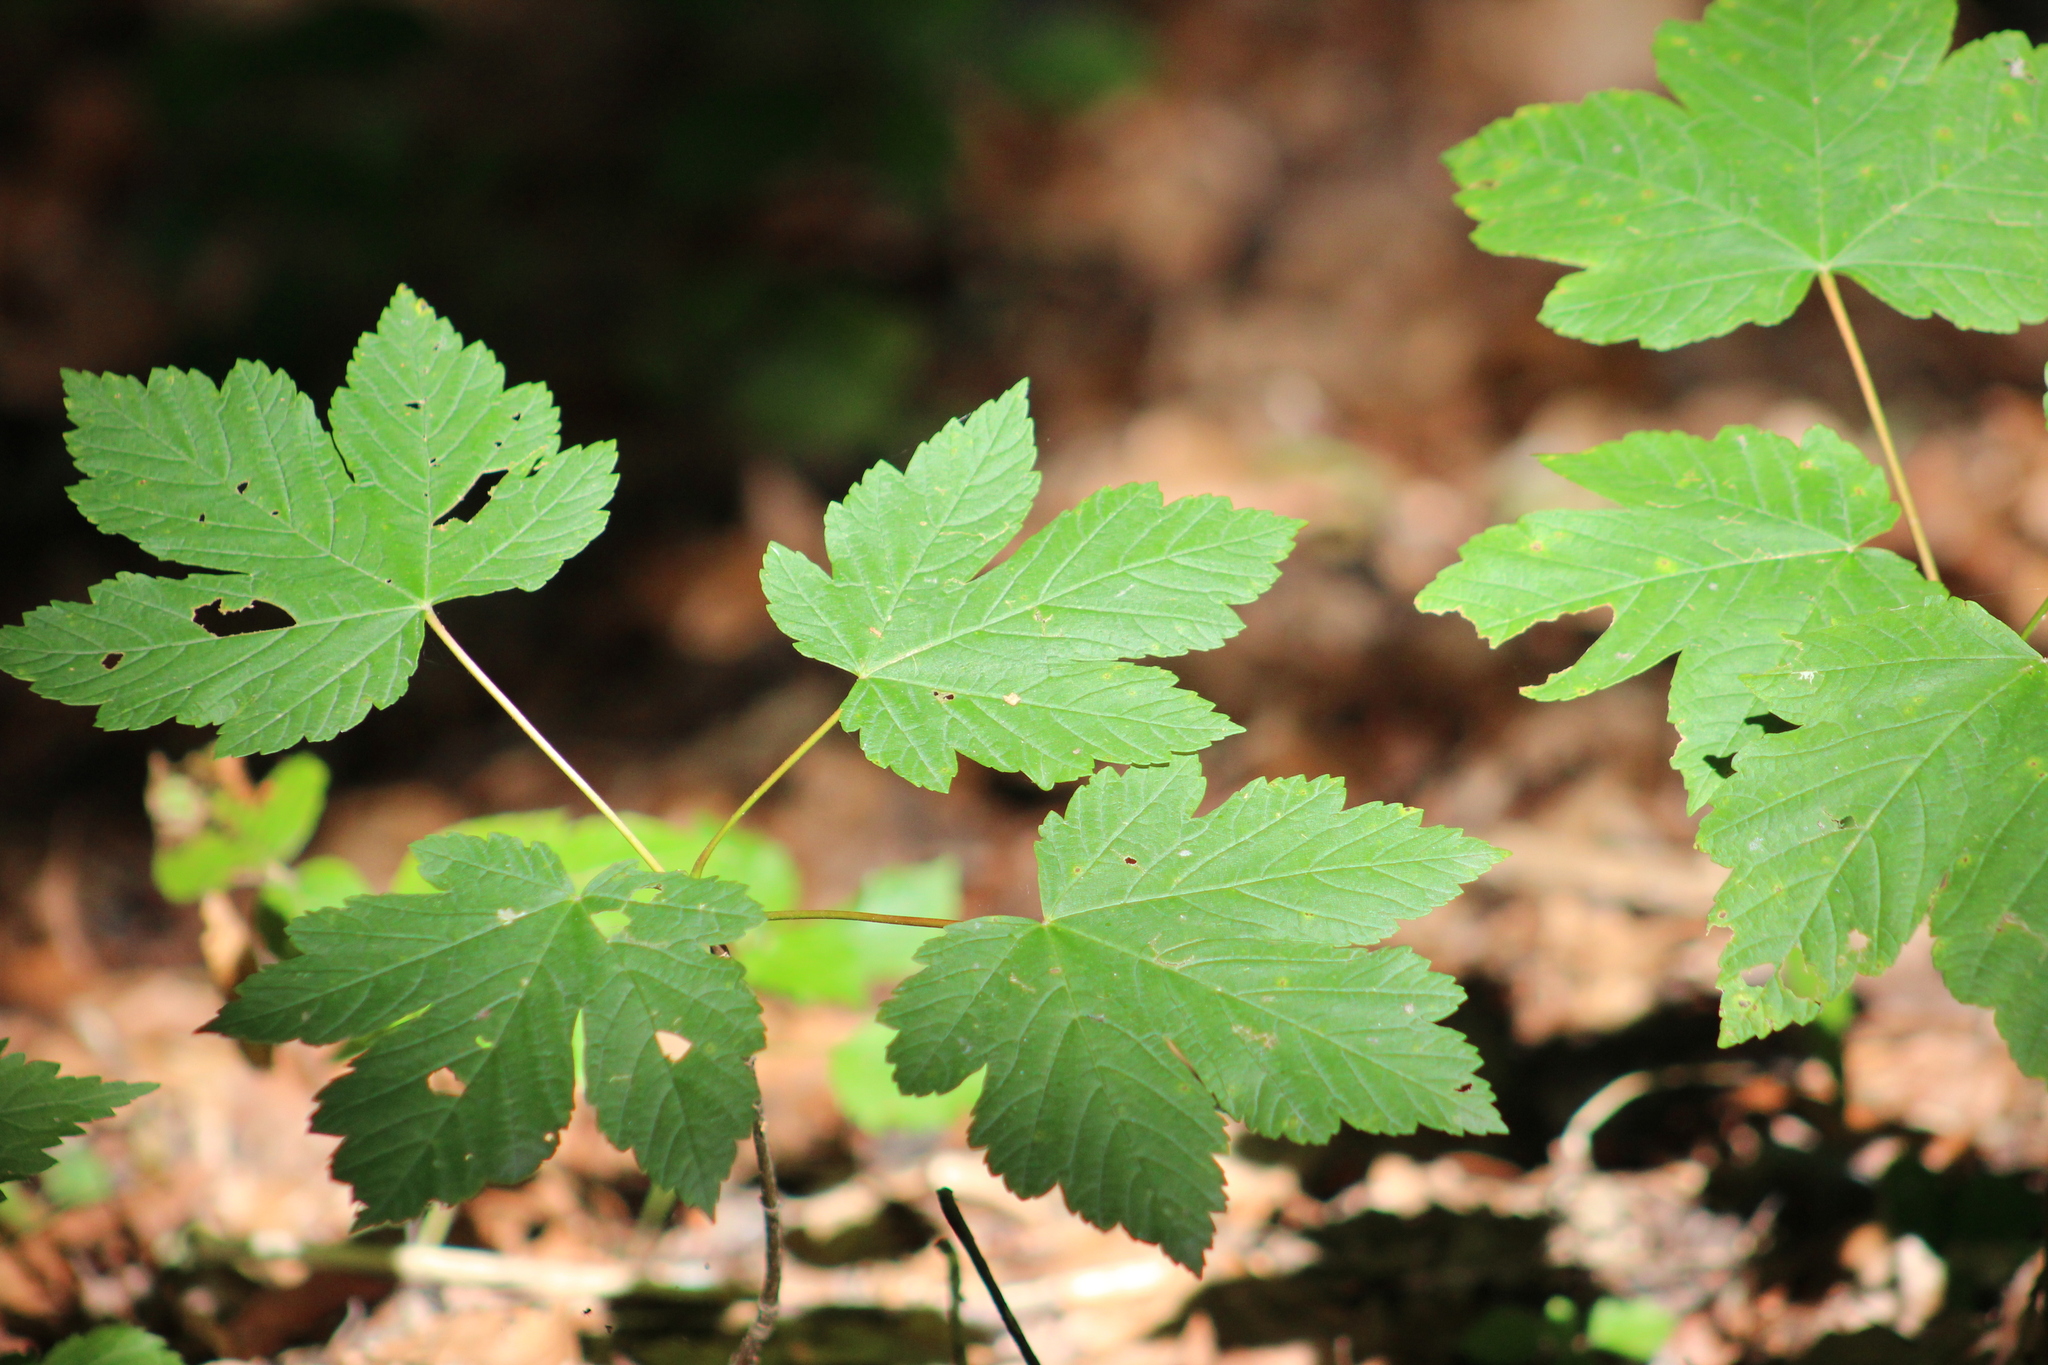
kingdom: Plantae
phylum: Tracheophyta
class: Magnoliopsida
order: Sapindales
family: Sapindaceae
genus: Acer
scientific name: Acer pseudoplatanus
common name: Sycamore
